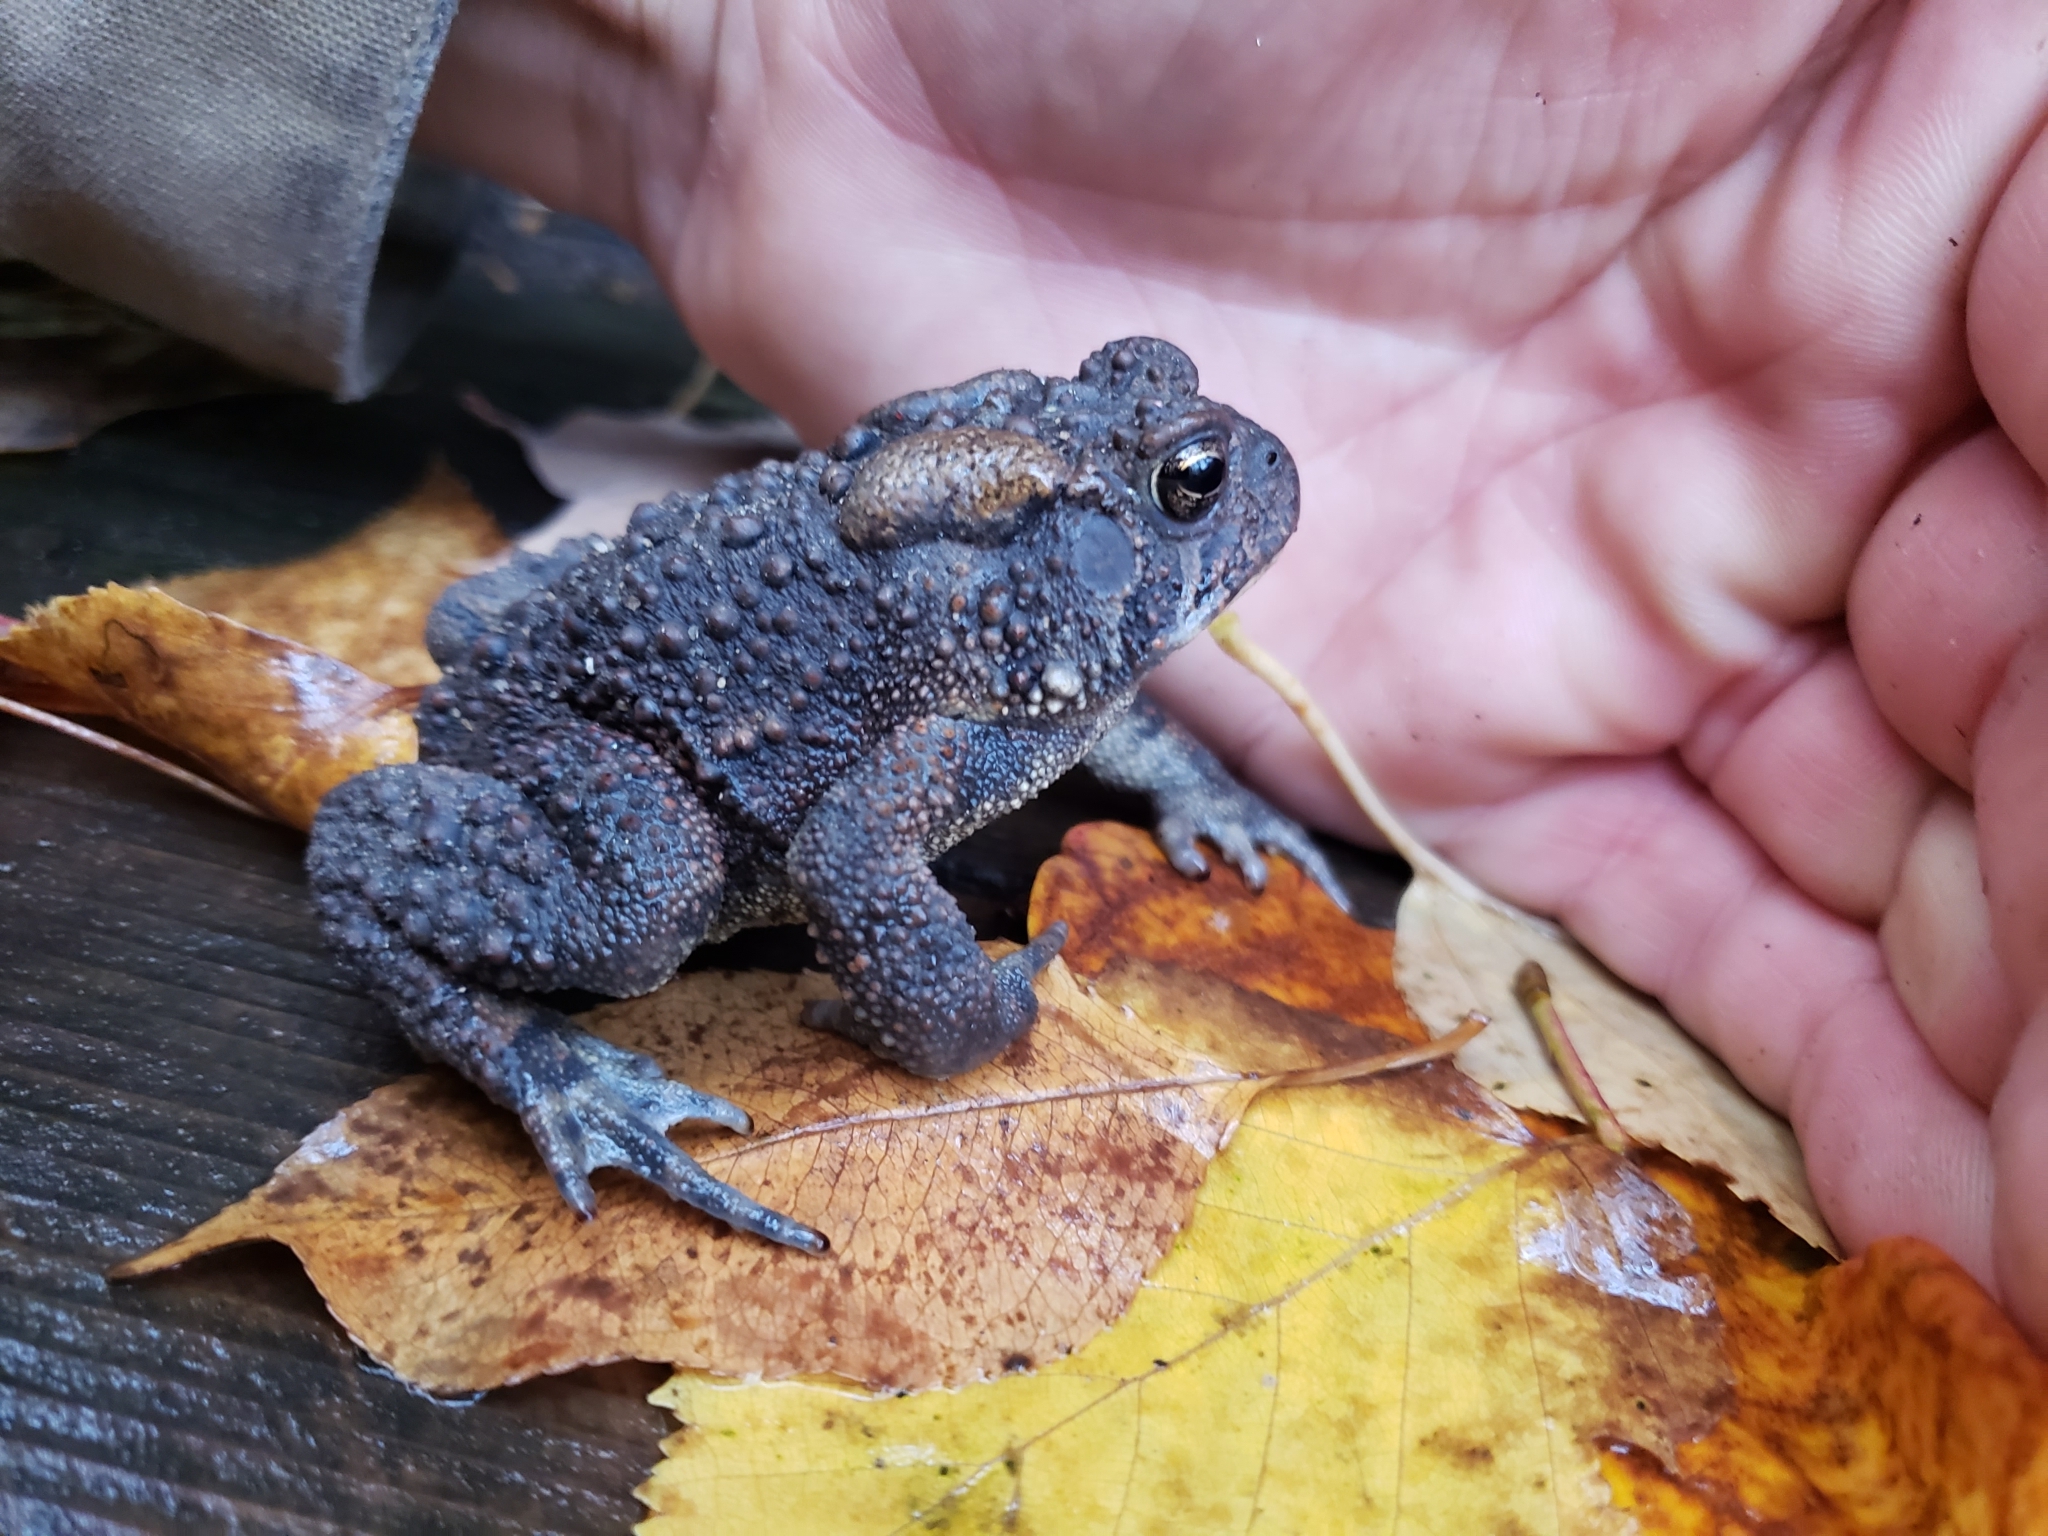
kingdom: Animalia
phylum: Chordata
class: Amphibia
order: Anura
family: Bufonidae
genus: Anaxyrus
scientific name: Anaxyrus americanus
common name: American toad
